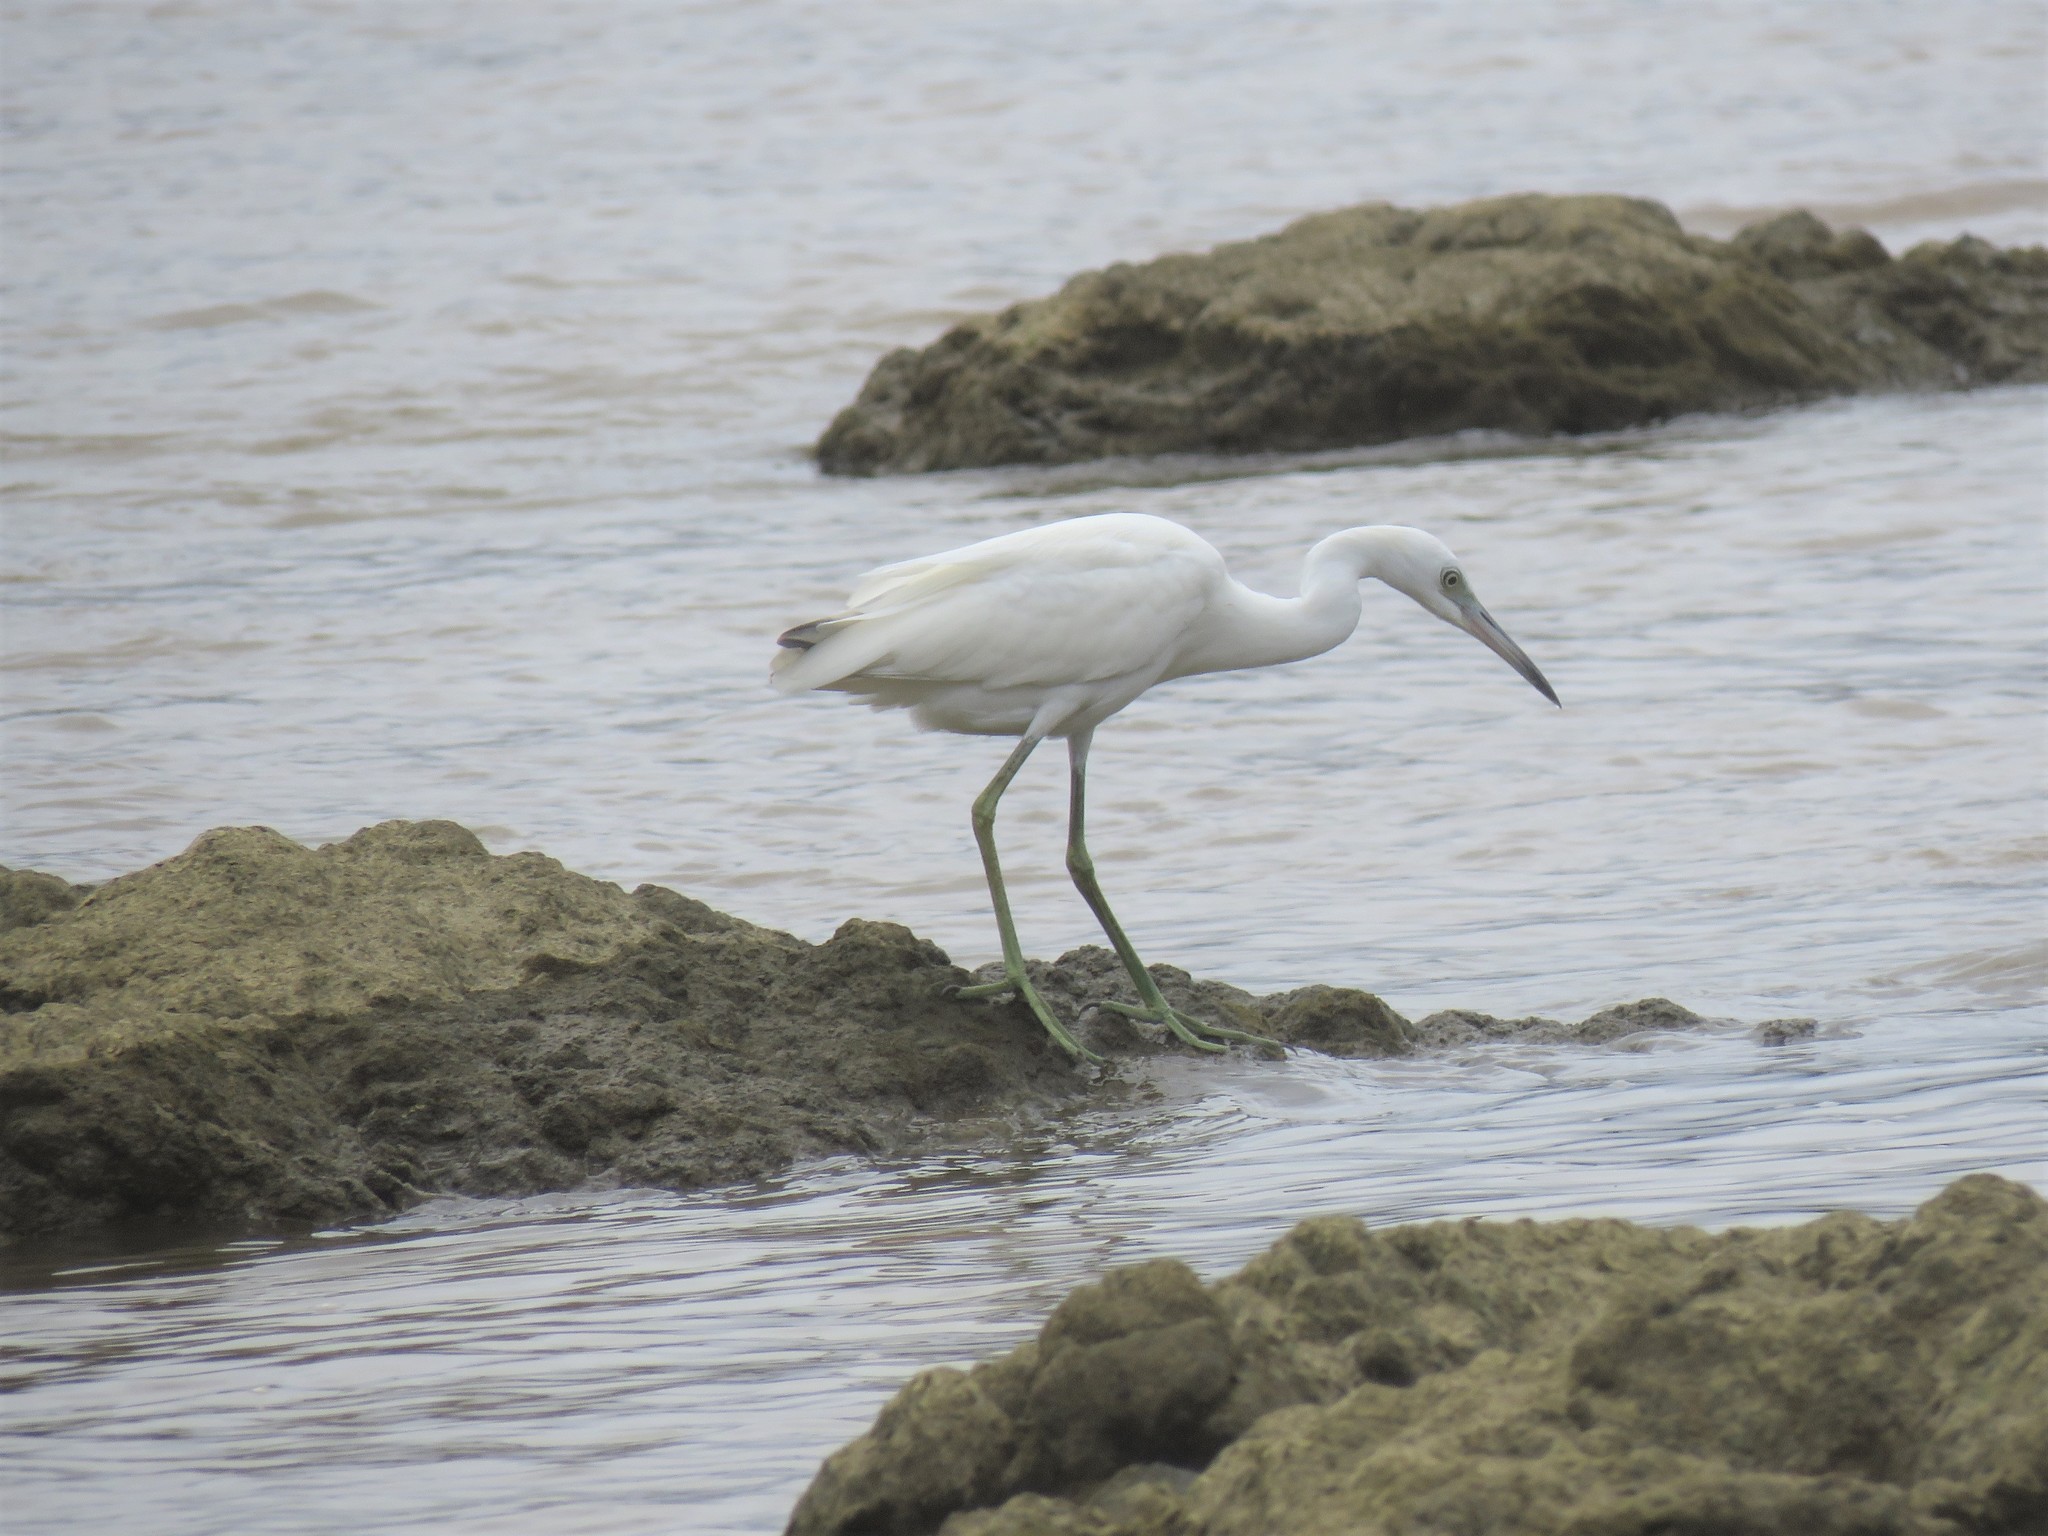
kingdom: Animalia
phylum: Chordata
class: Aves
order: Pelecaniformes
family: Ardeidae
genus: Egretta
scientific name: Egretta caerulea
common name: Little blue heron
